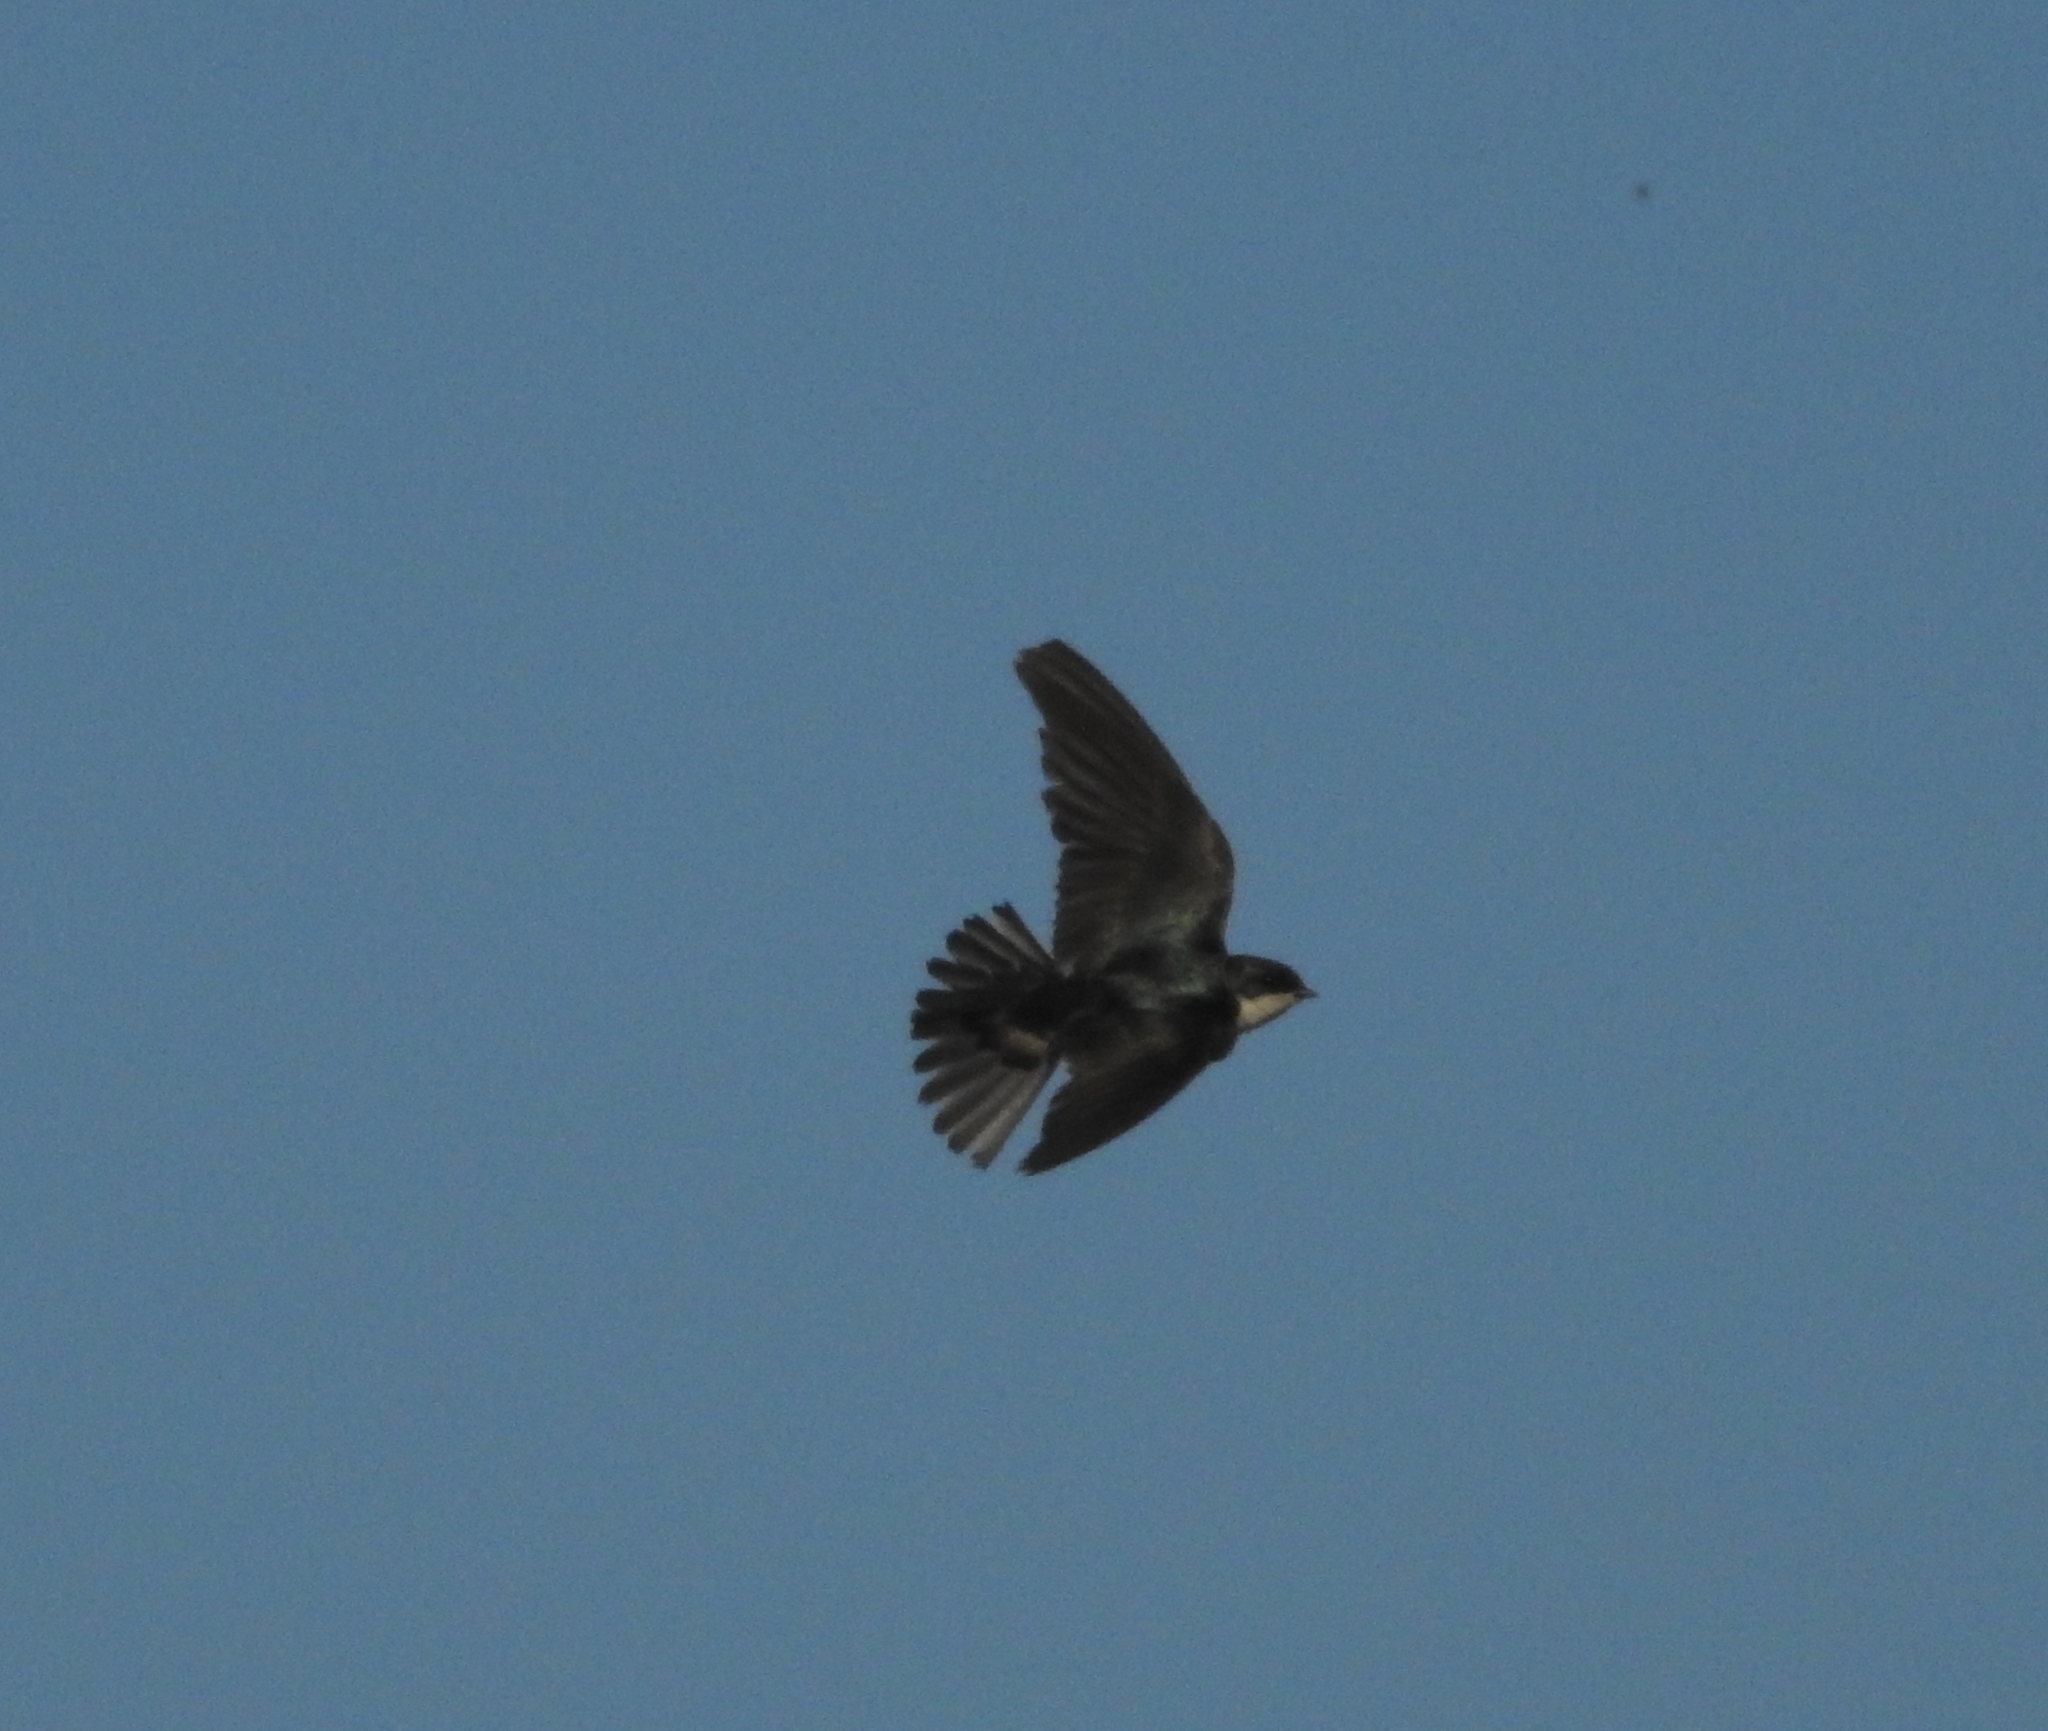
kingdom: Animalia
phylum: Chordata
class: Aves
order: Passeriformes
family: Hirundinidae
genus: Tachycineta
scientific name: Tachycineta bicolor
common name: Tree swallow
